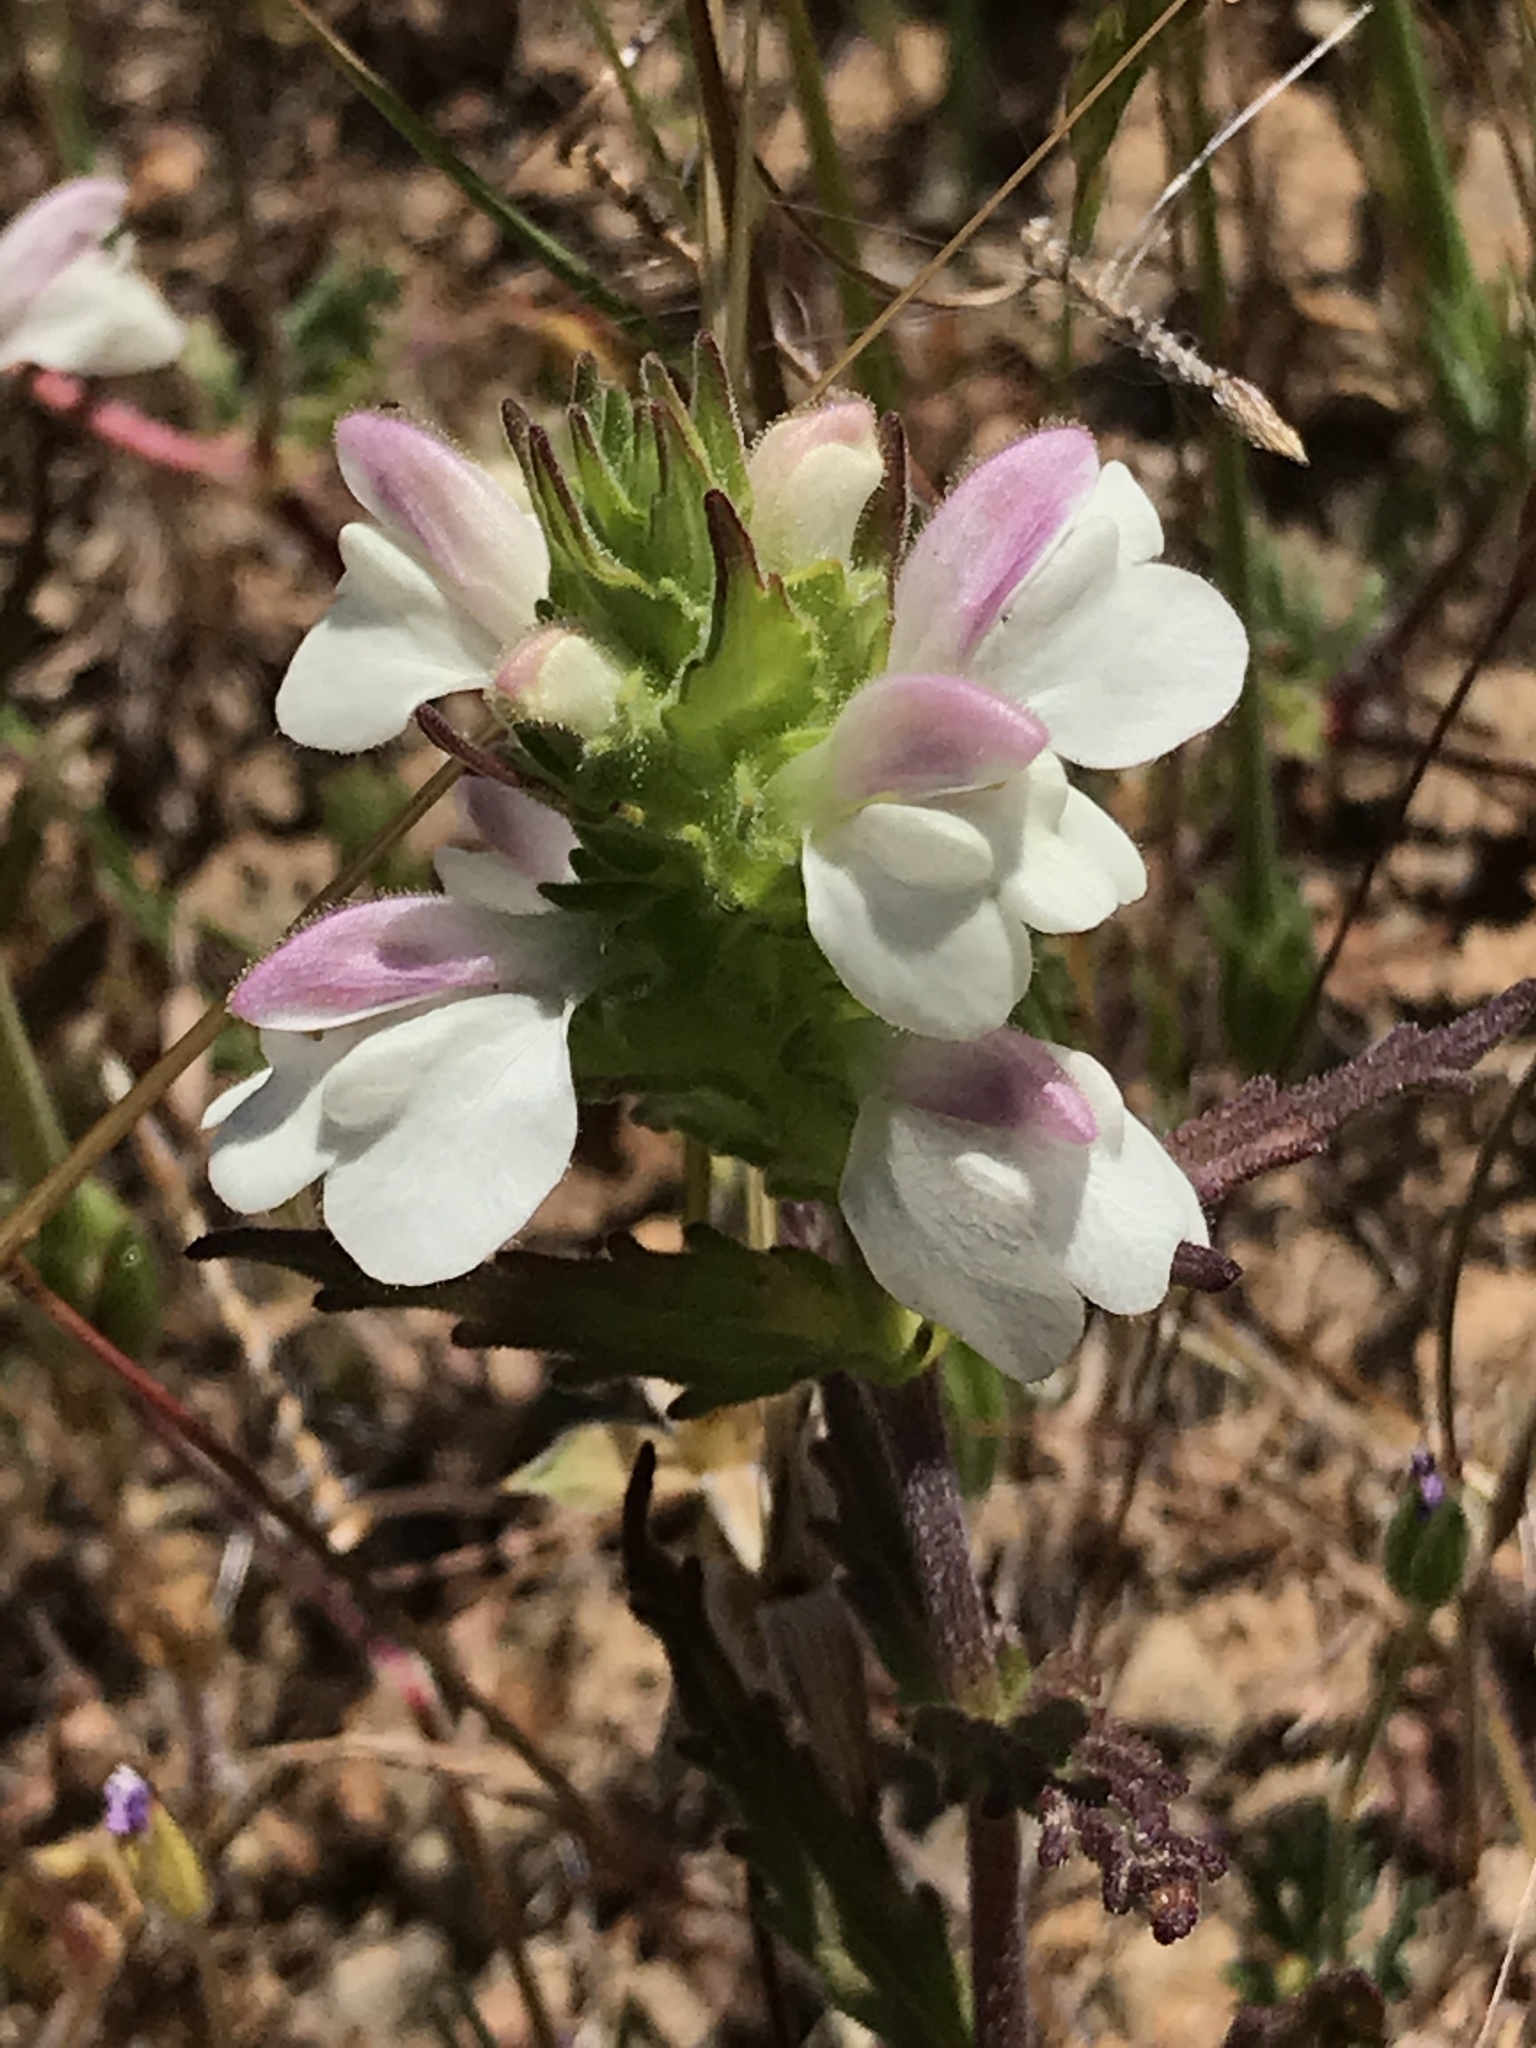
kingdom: Plantae
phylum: Tracheophyta
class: Magnoliopsida
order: Lamiales
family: Orobanchaceae
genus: Bellardia
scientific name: Bellardia trixago
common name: Mediterranean lineseed
